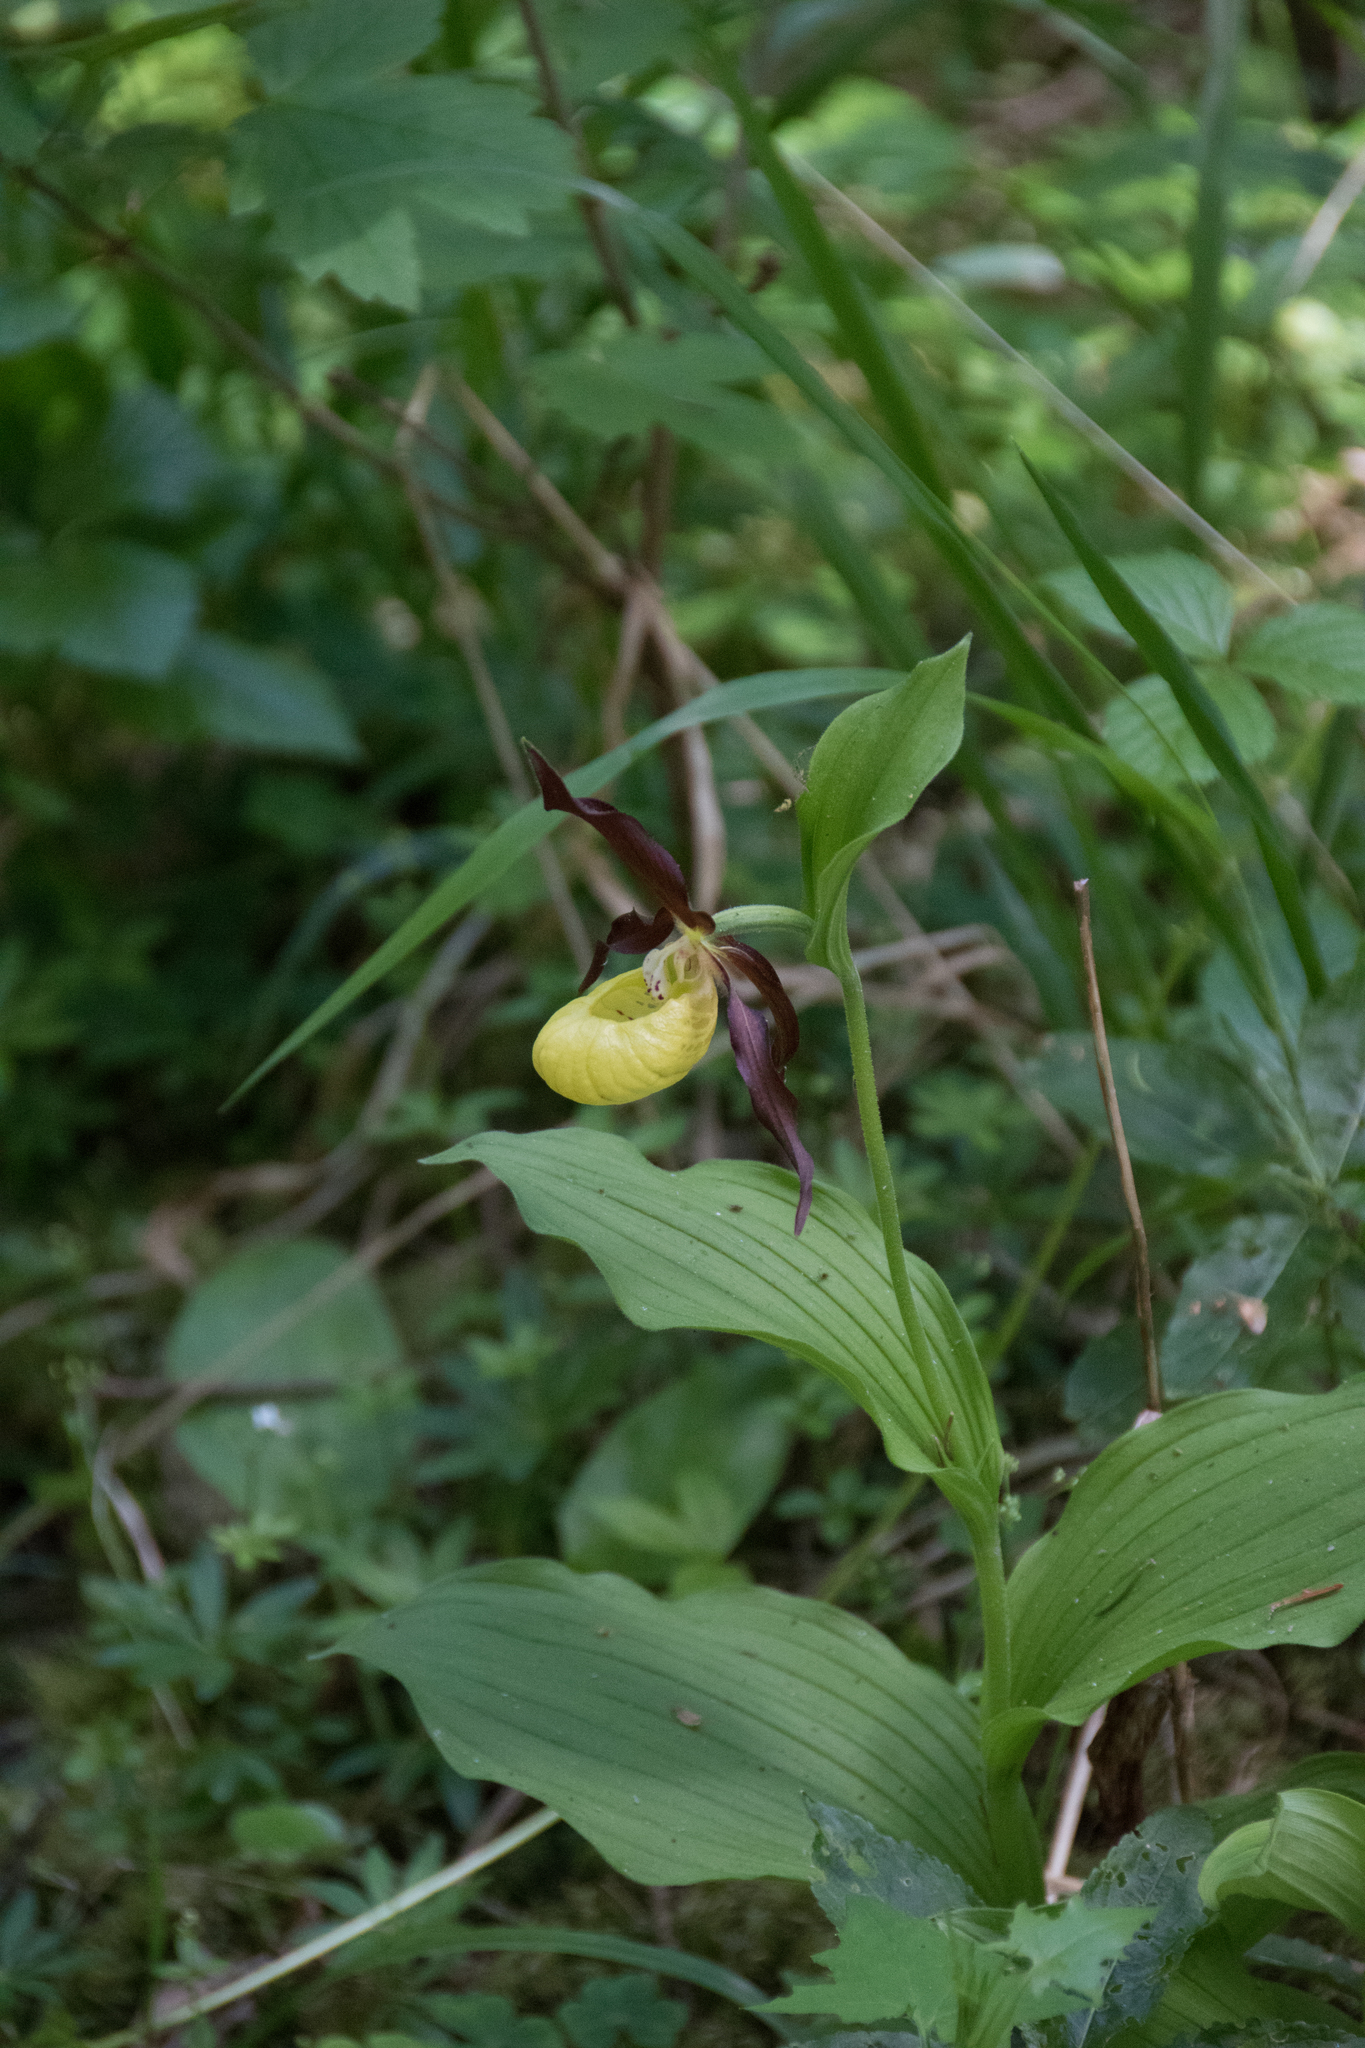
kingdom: Plantae
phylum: Tracheophyta
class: Liliopsida
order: Asparagales
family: Orchidaceae
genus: Cypripedium
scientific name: Cypripedium calceolus
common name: Lady's-slipper
